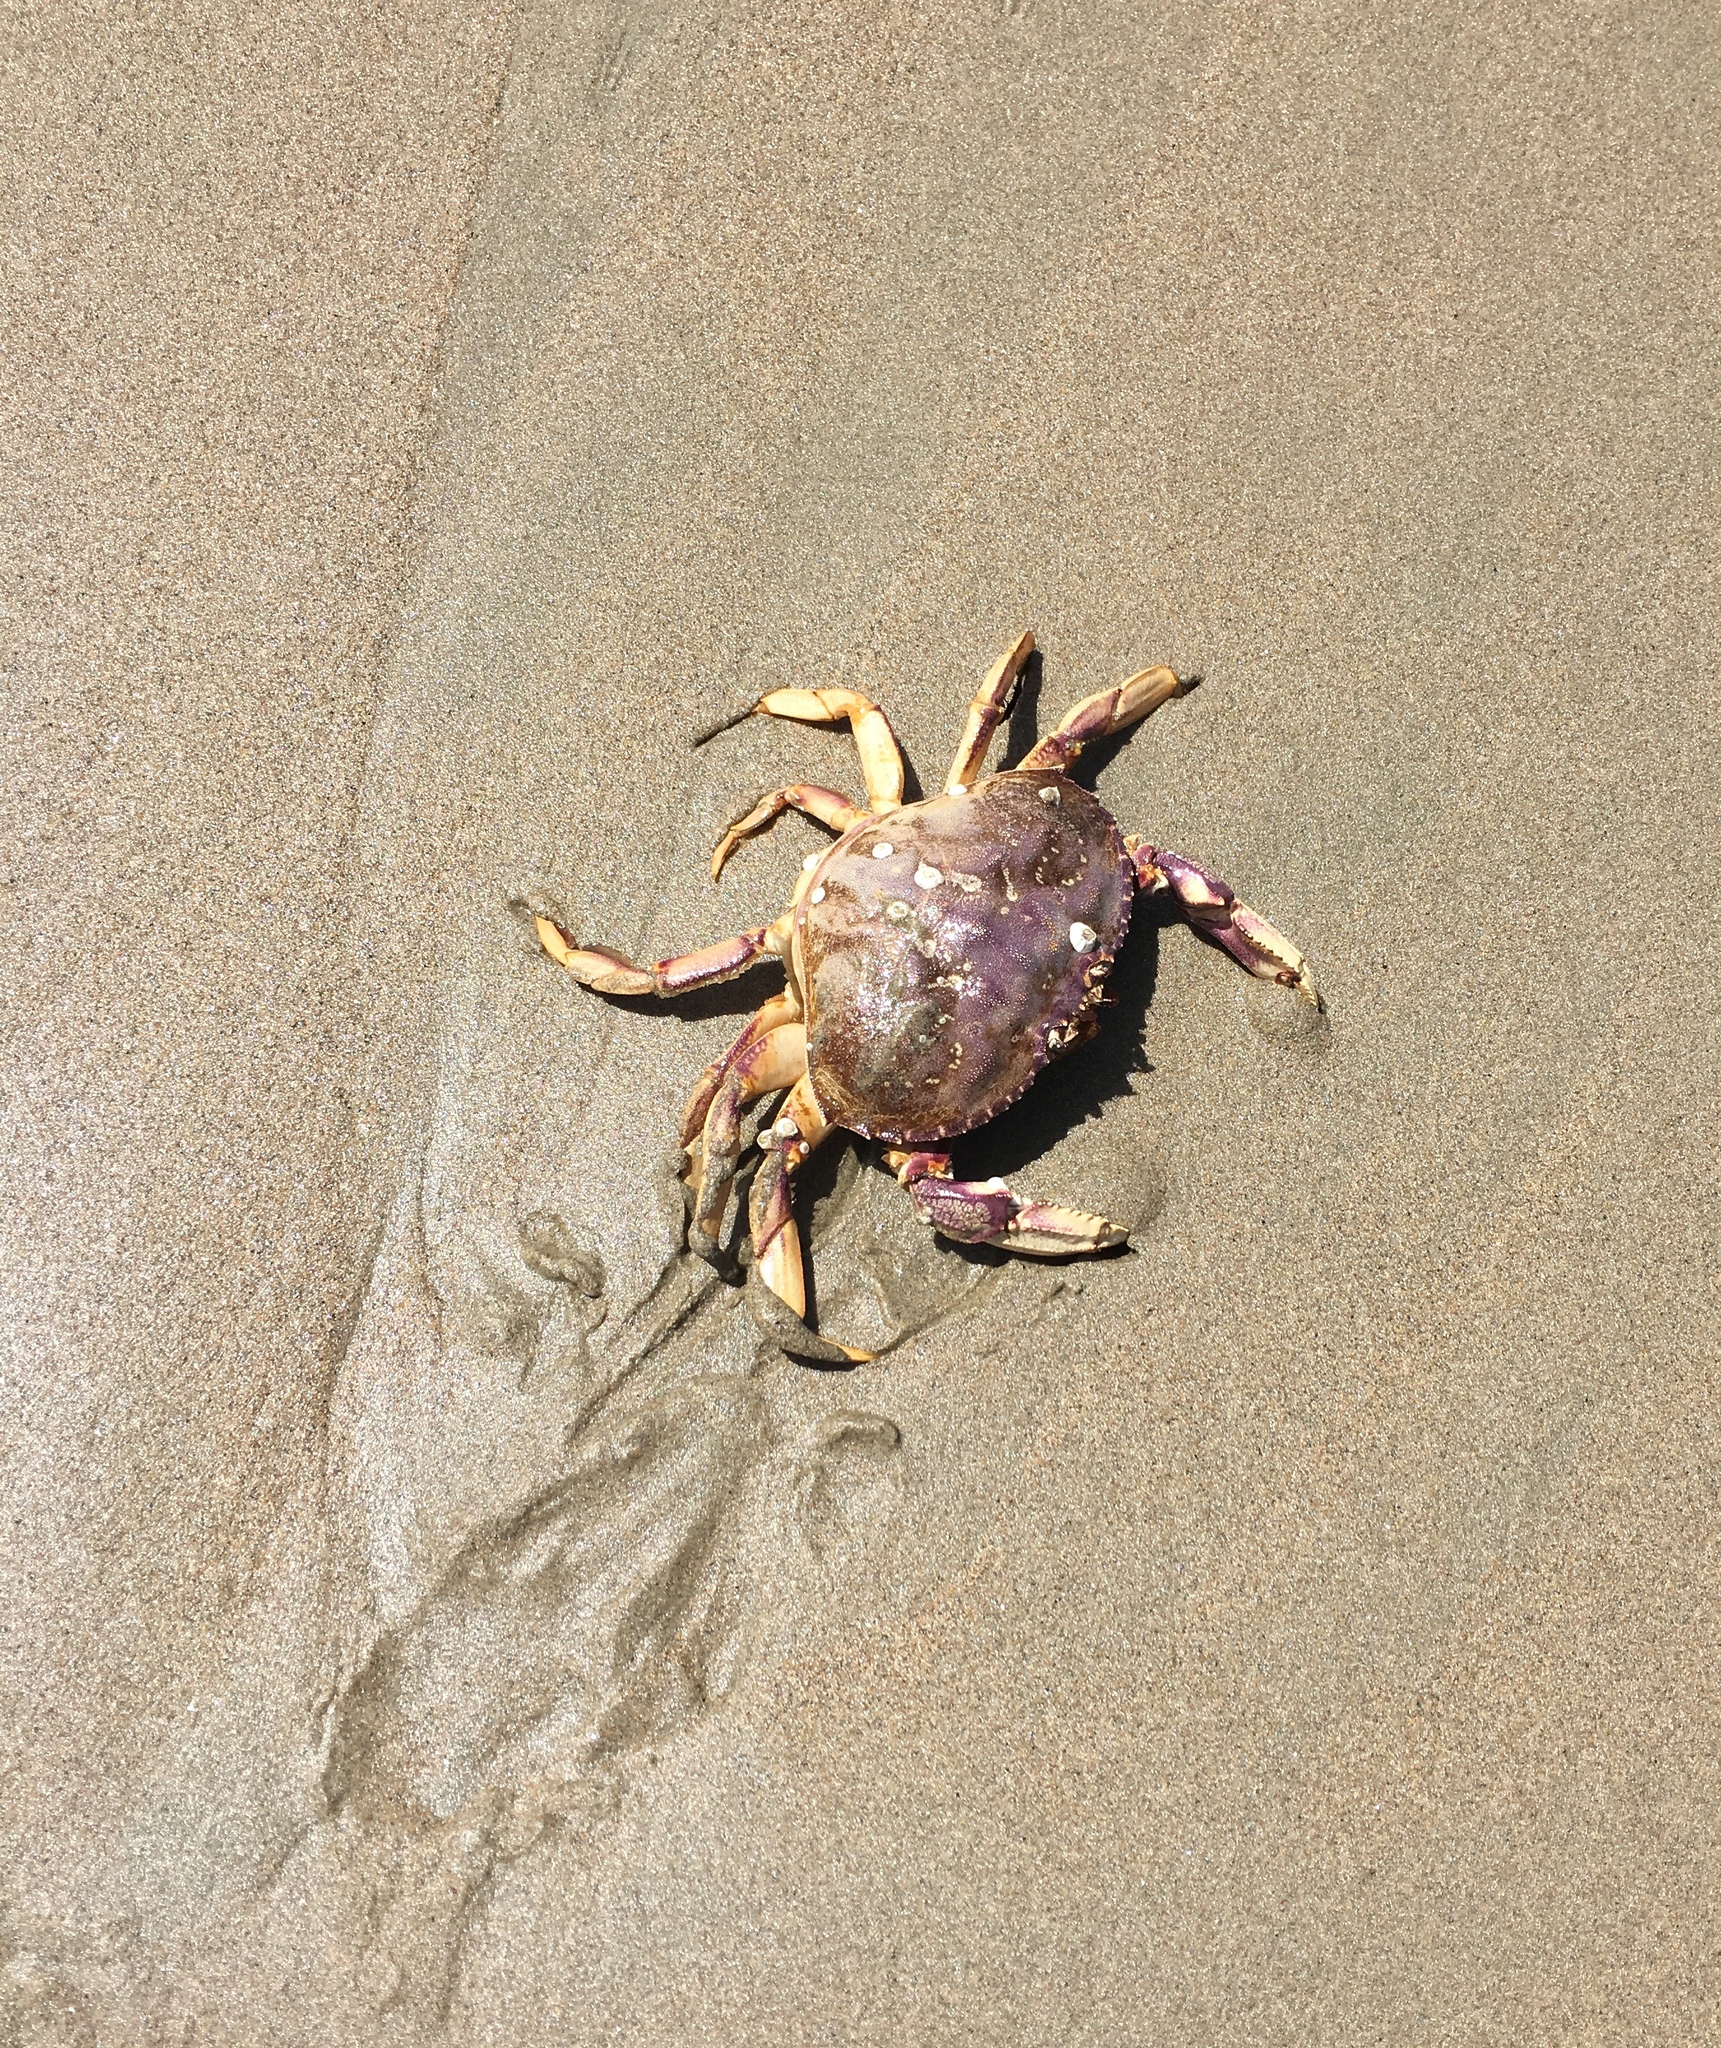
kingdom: Animalia
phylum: Arthropoda
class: Malacostraca
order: Decapoda
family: Cancridae
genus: Metacarcinus
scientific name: Metacarcinus magister
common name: Californian crab
